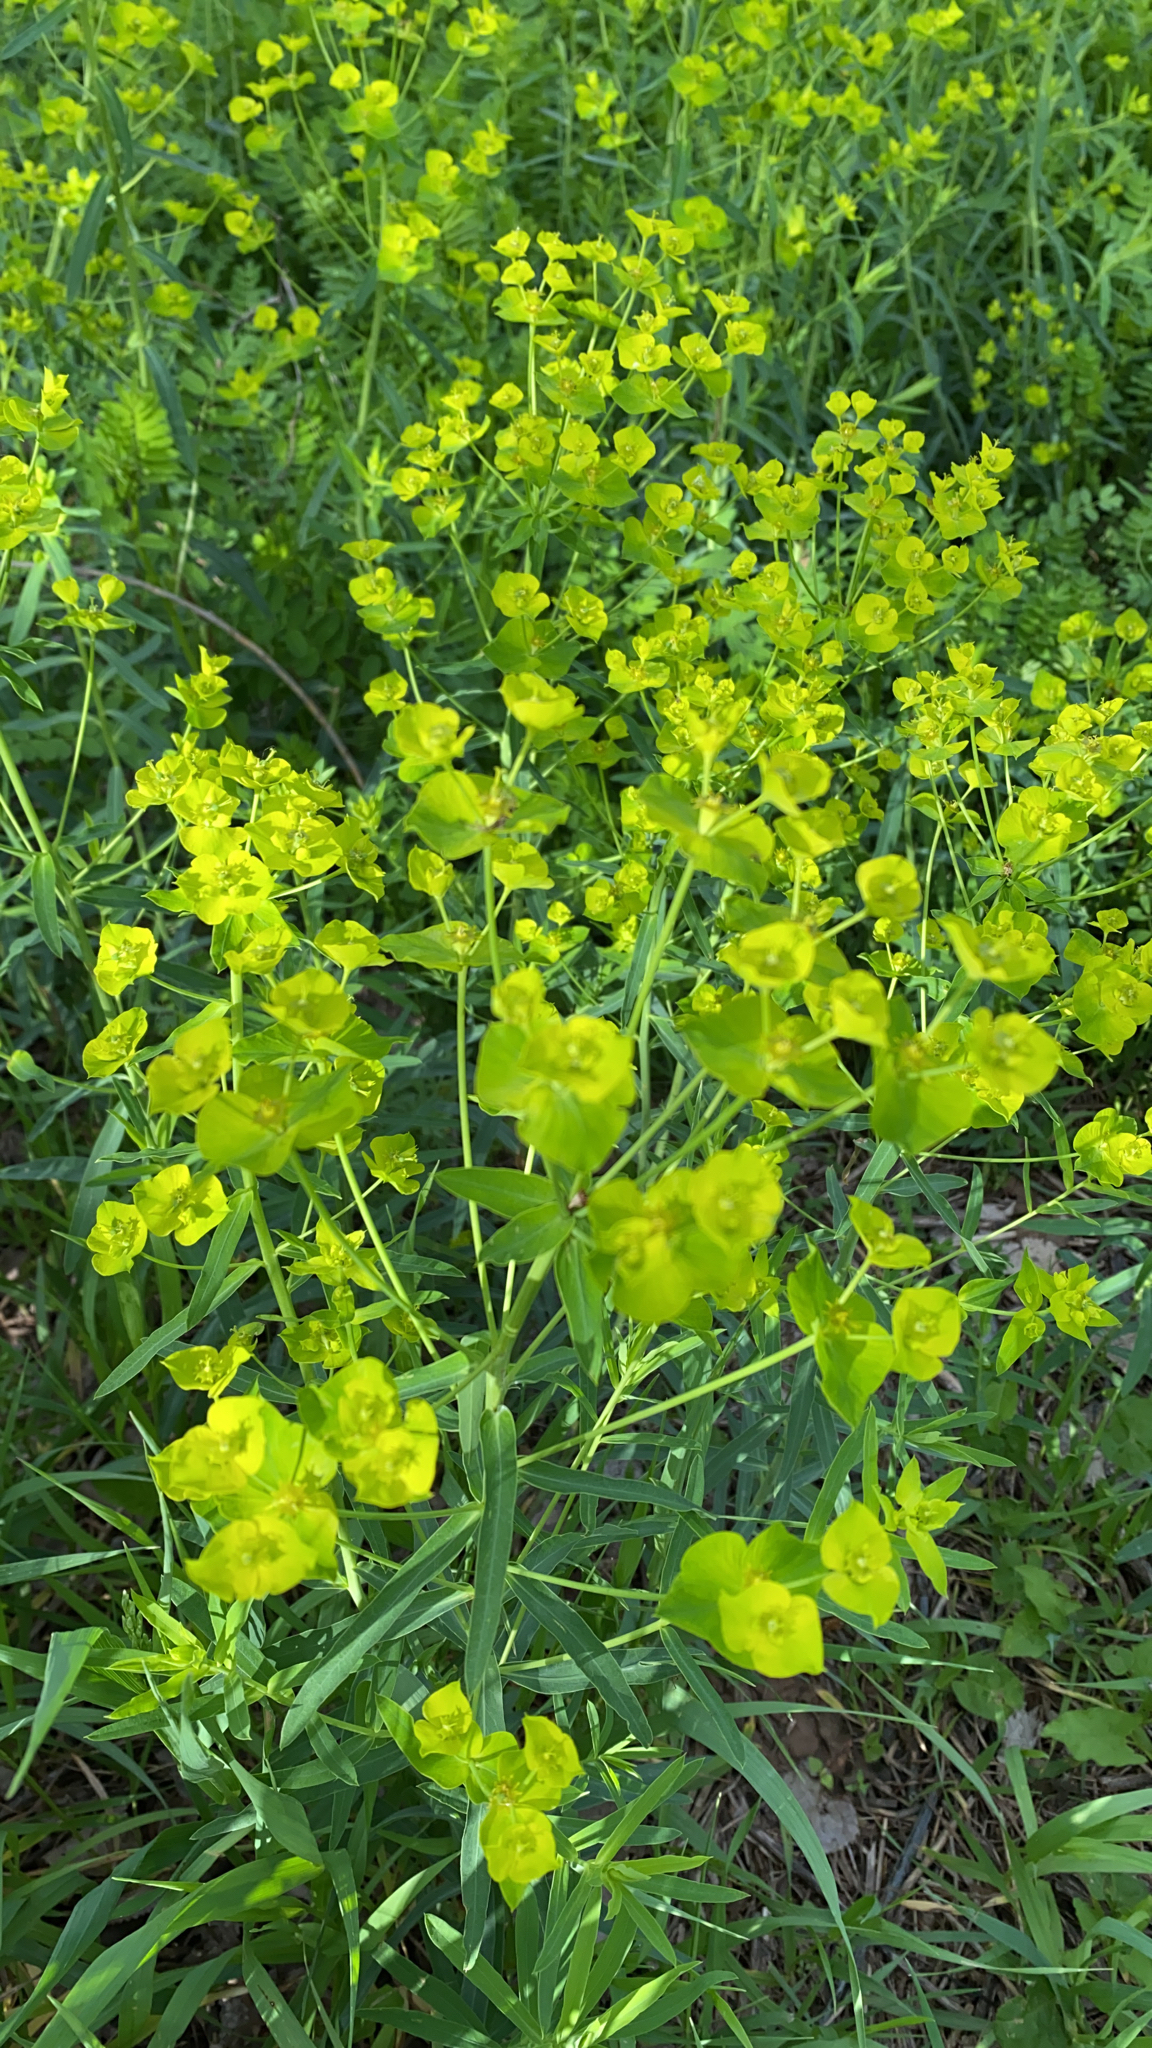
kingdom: Plantae
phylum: Tracheophyta
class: Magnoliopsida
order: Malpighiales
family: Euphorbiaceae
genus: Euphorbia
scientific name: Euphorbia virgata
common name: Leafy spurge
